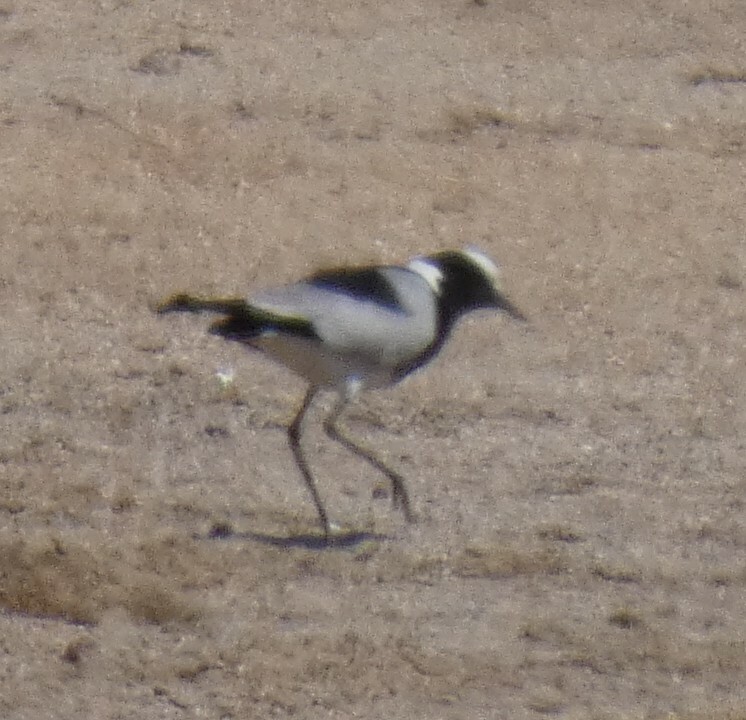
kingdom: Animalia
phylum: Chordata
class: Aves
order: Charadriiformes
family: Charadriidae
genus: Vanellus
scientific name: Vanellus armatus
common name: Blacksmith lapwing
